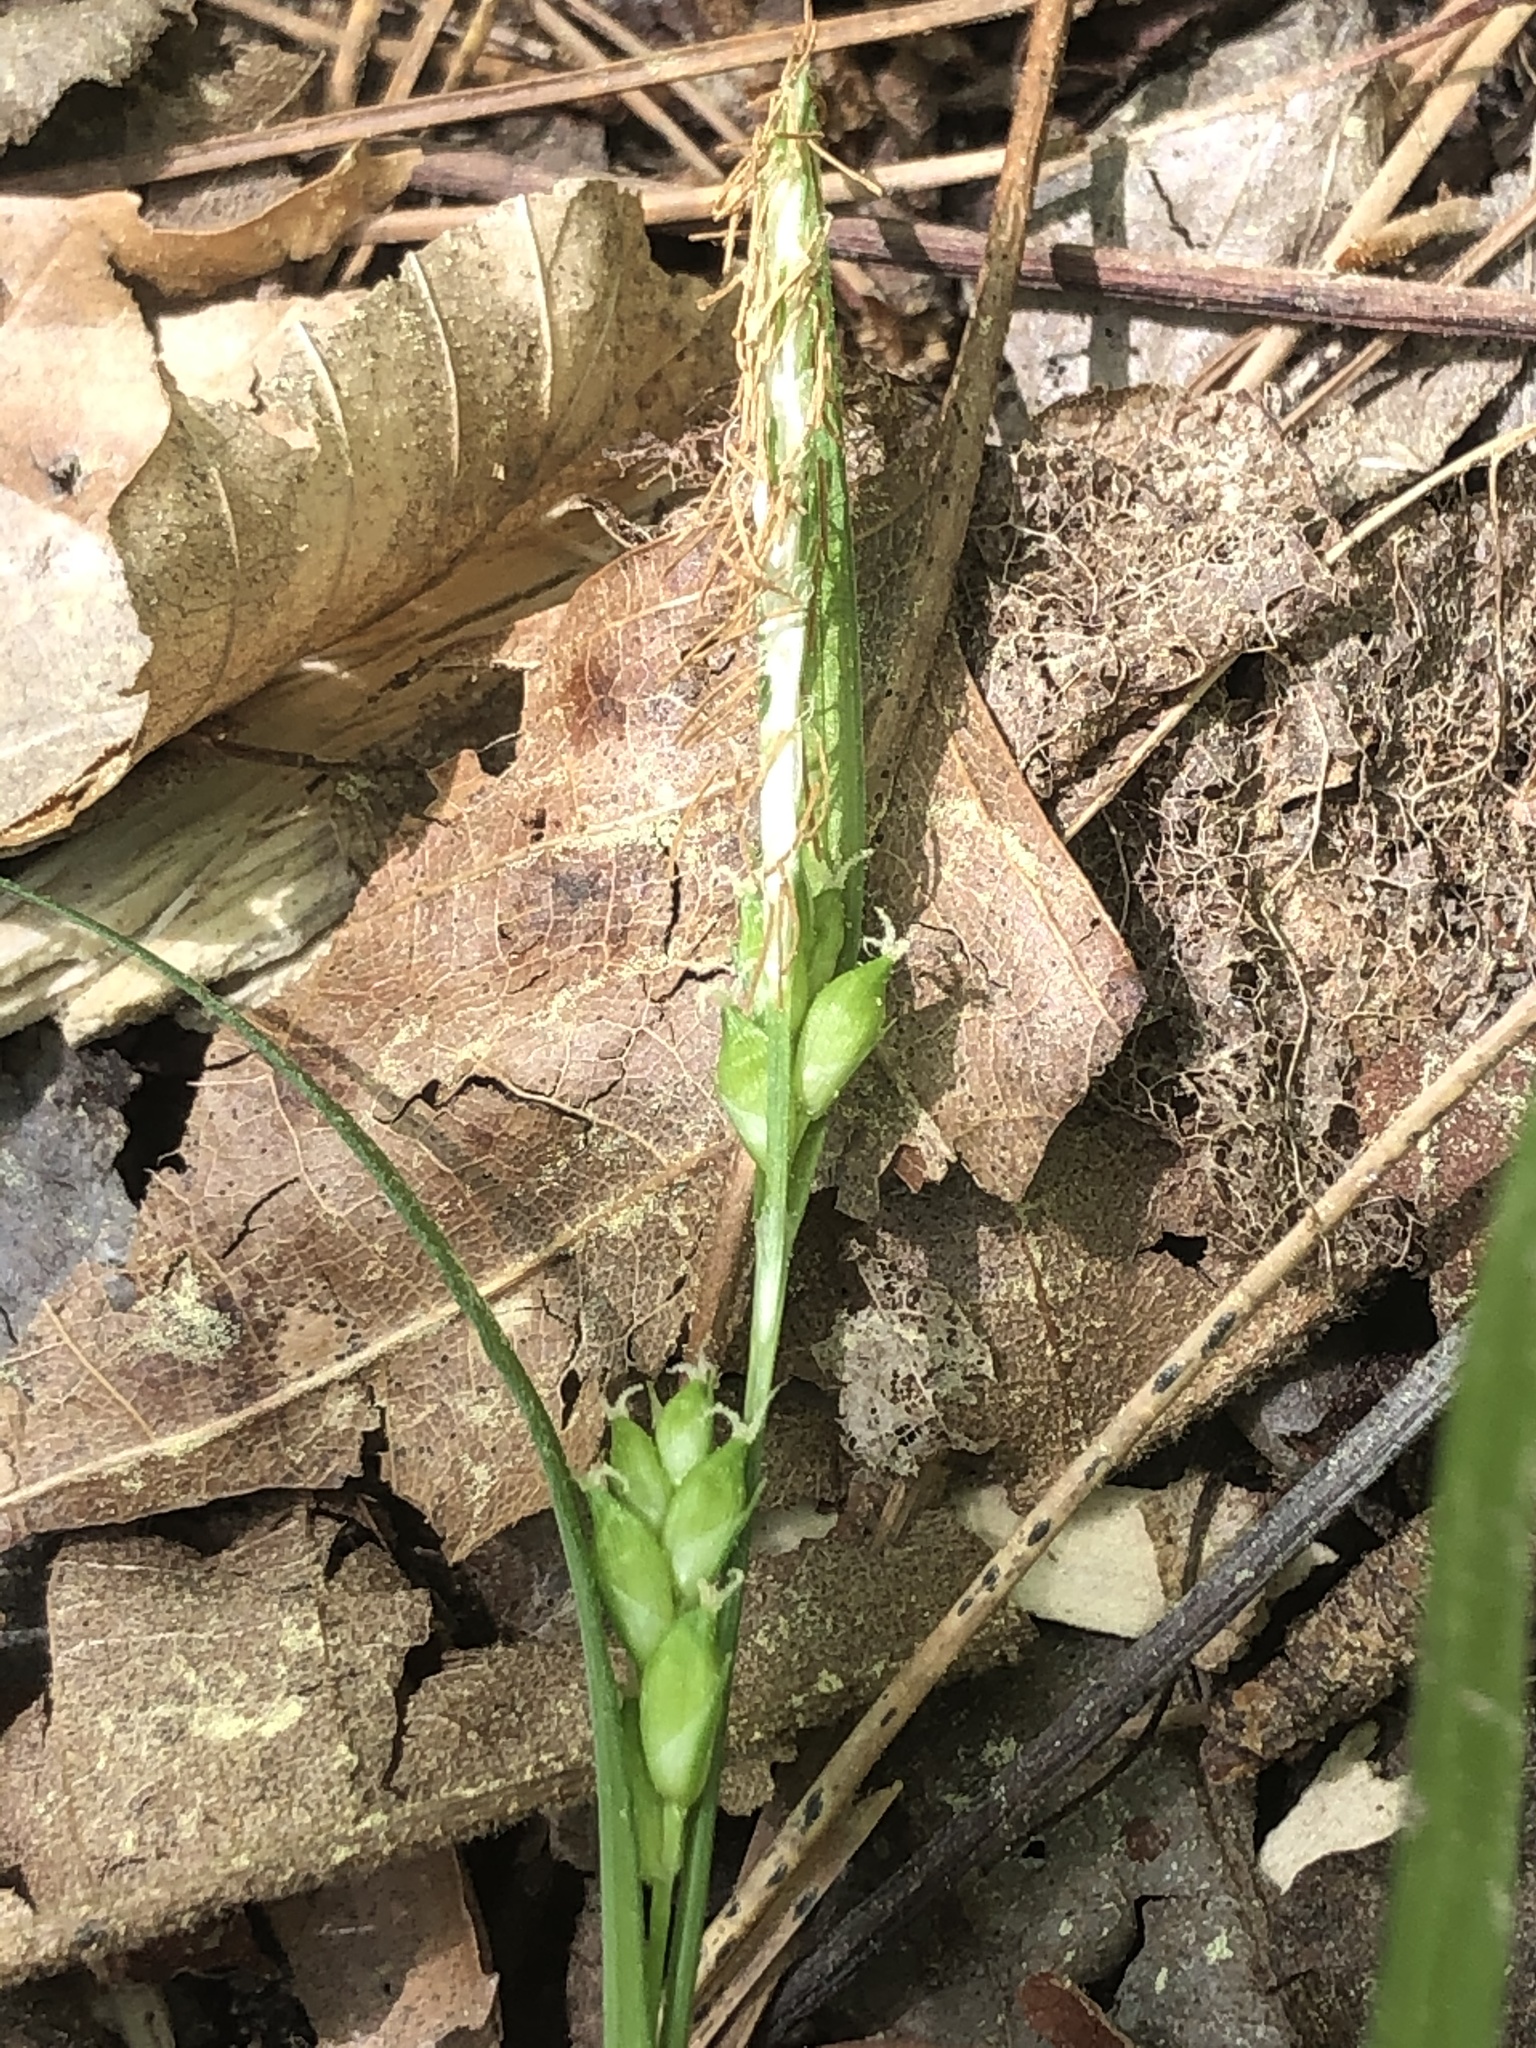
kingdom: Plantae
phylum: Tracheophyta
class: Liliopsida
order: Poales
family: Cyperaceae
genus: Carex
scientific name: Carex amphibola
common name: Amphibious sedge
